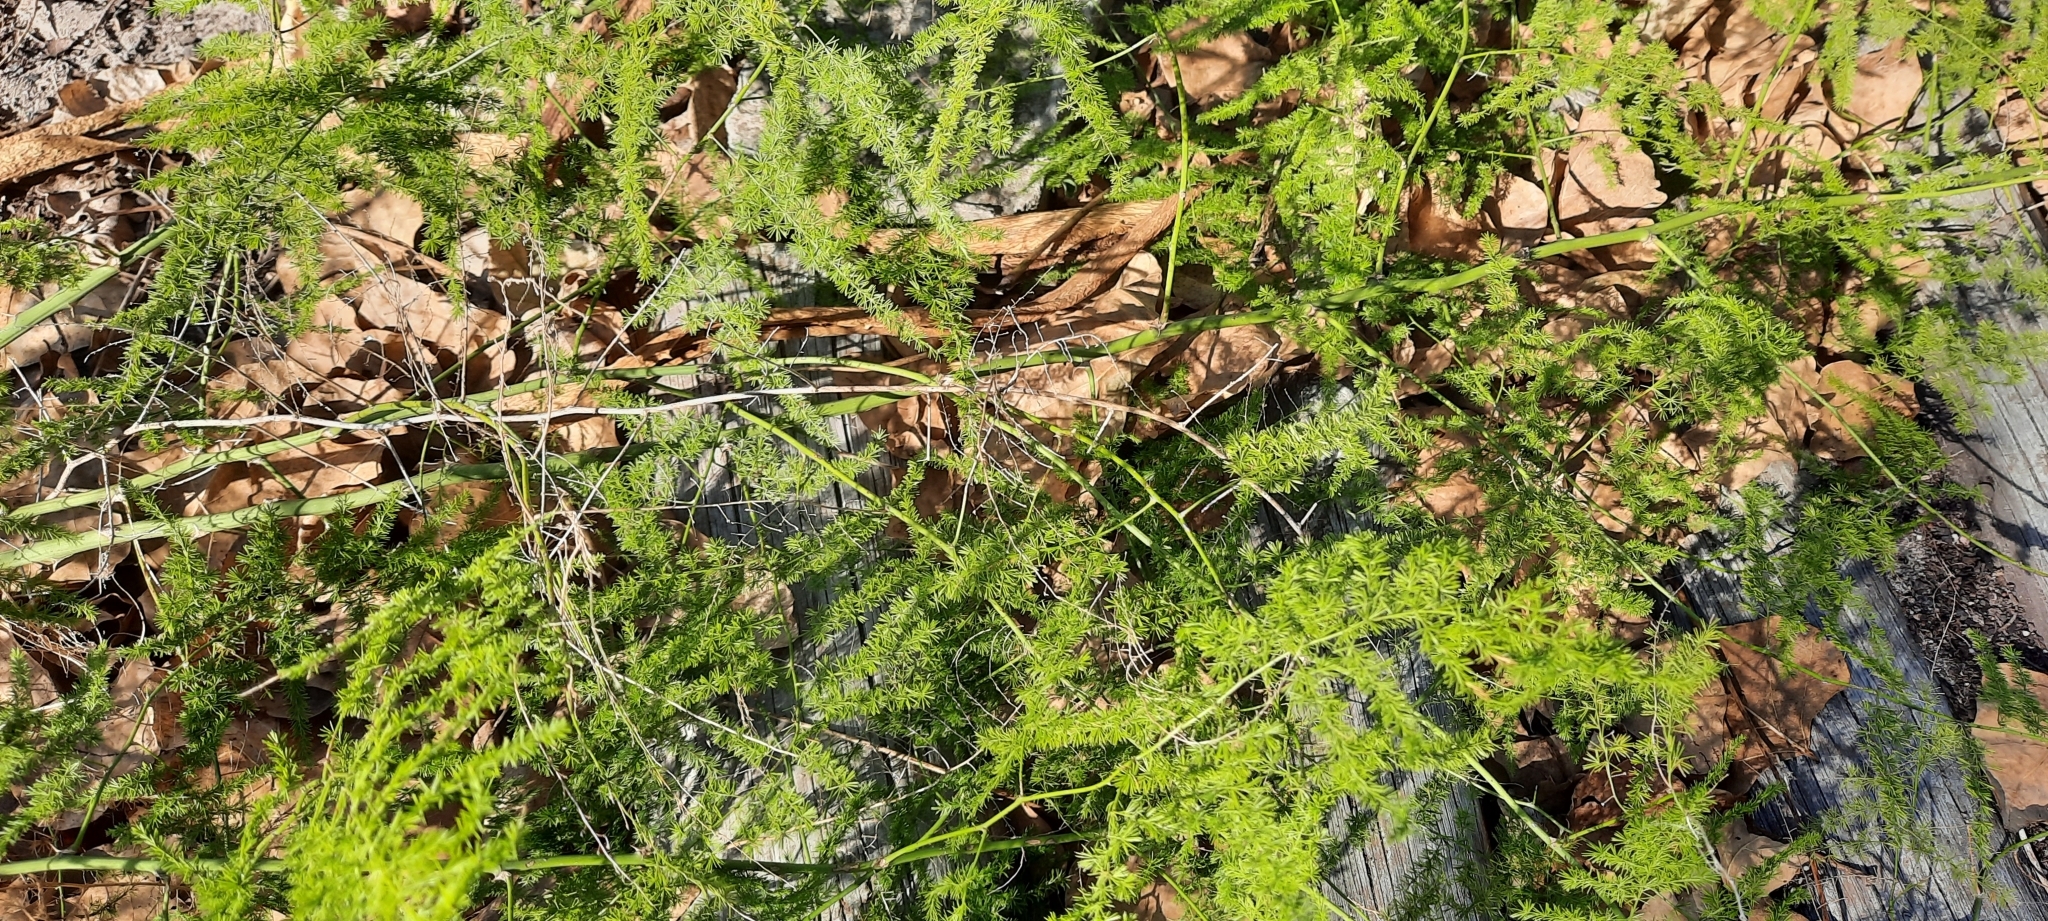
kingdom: Plantae
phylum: Tracheophyta
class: Liliopsida
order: Asparagales
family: Asparagaceae
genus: Asparagus
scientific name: Asparagus setaceus
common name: Common asparagus fern
